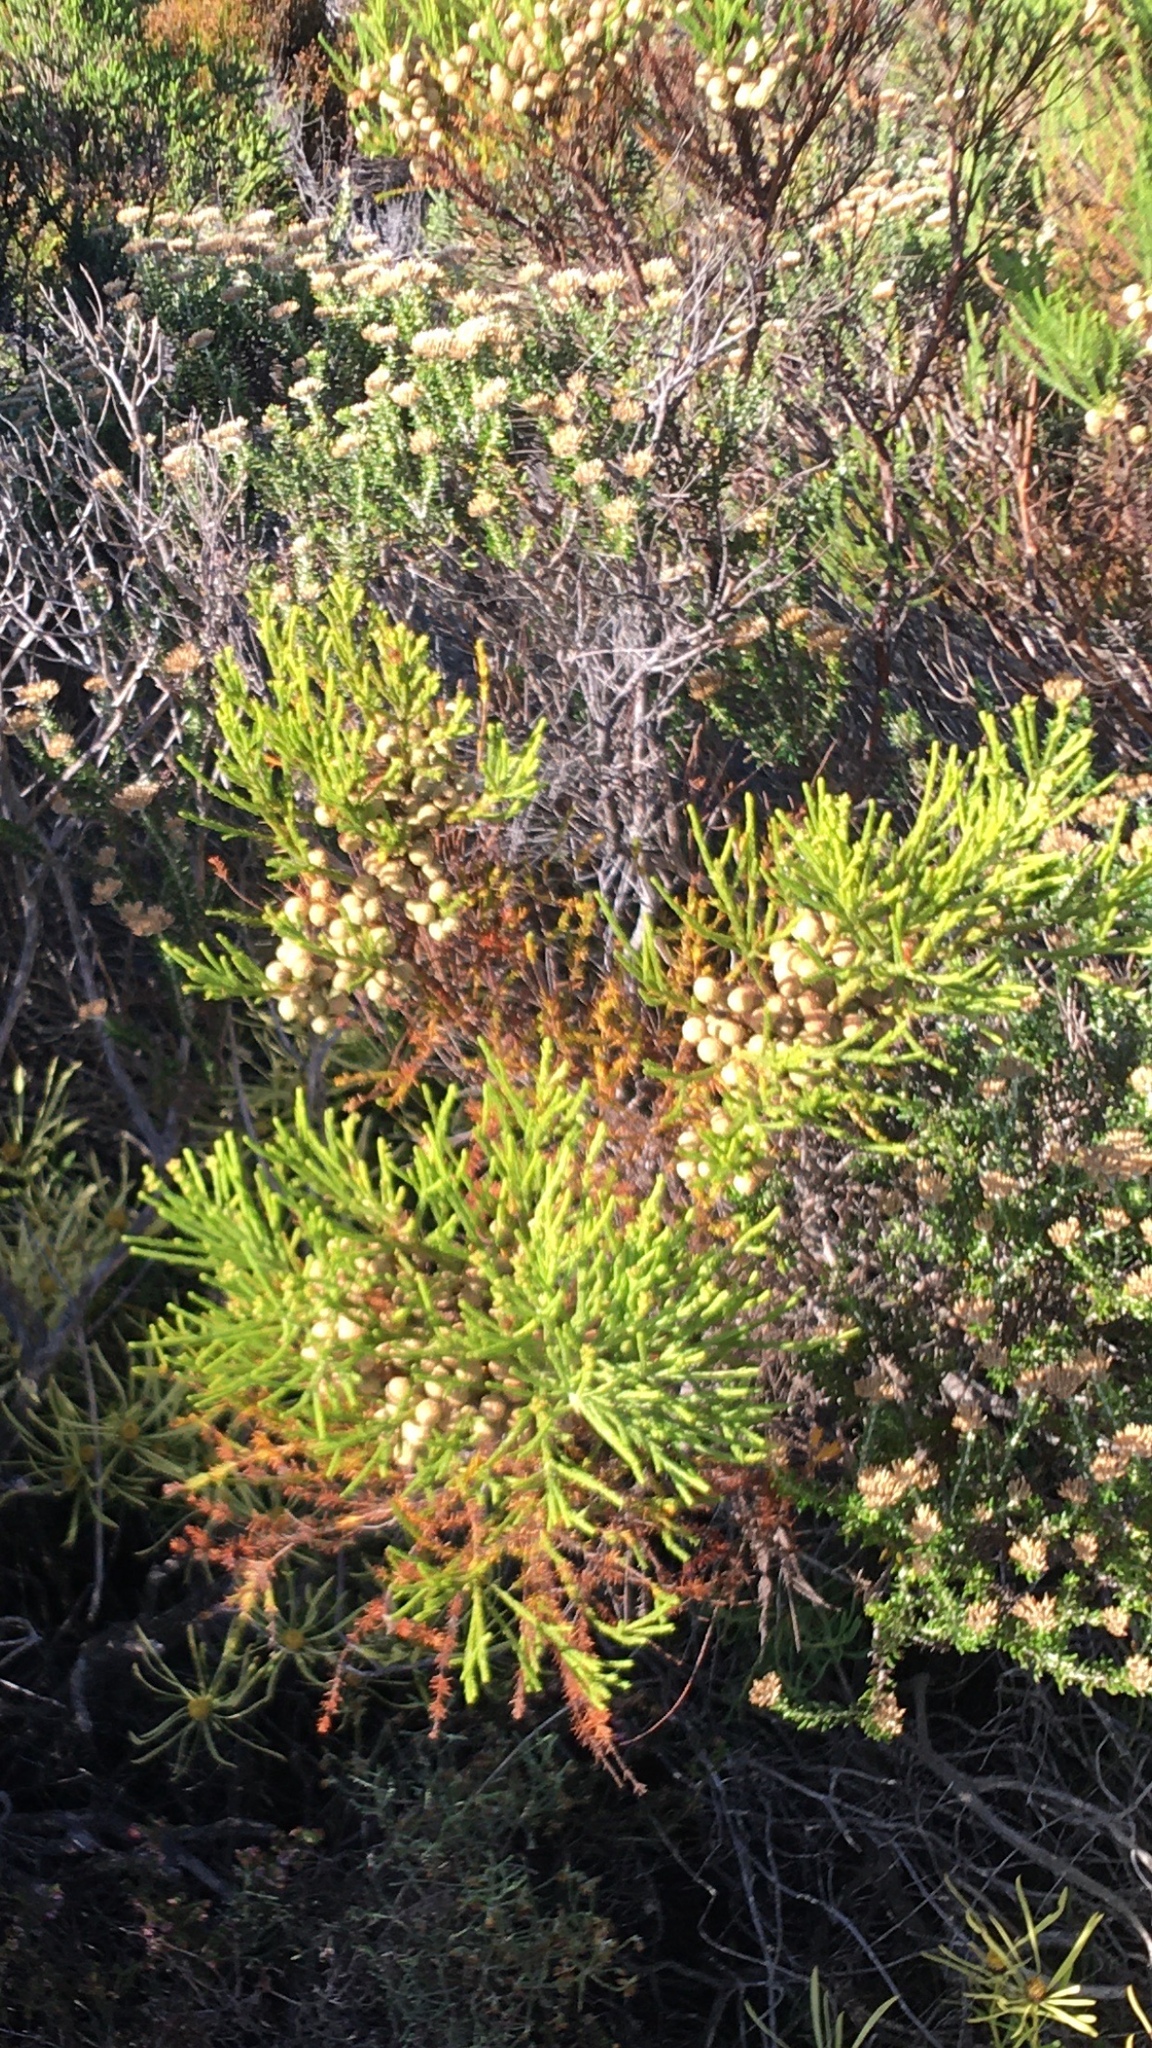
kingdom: Plantae
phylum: Tracheophyta
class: Magnoliopsida
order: Bruniales
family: Bruniaceae
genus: Berzelia
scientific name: Berzelia lanuginosa
